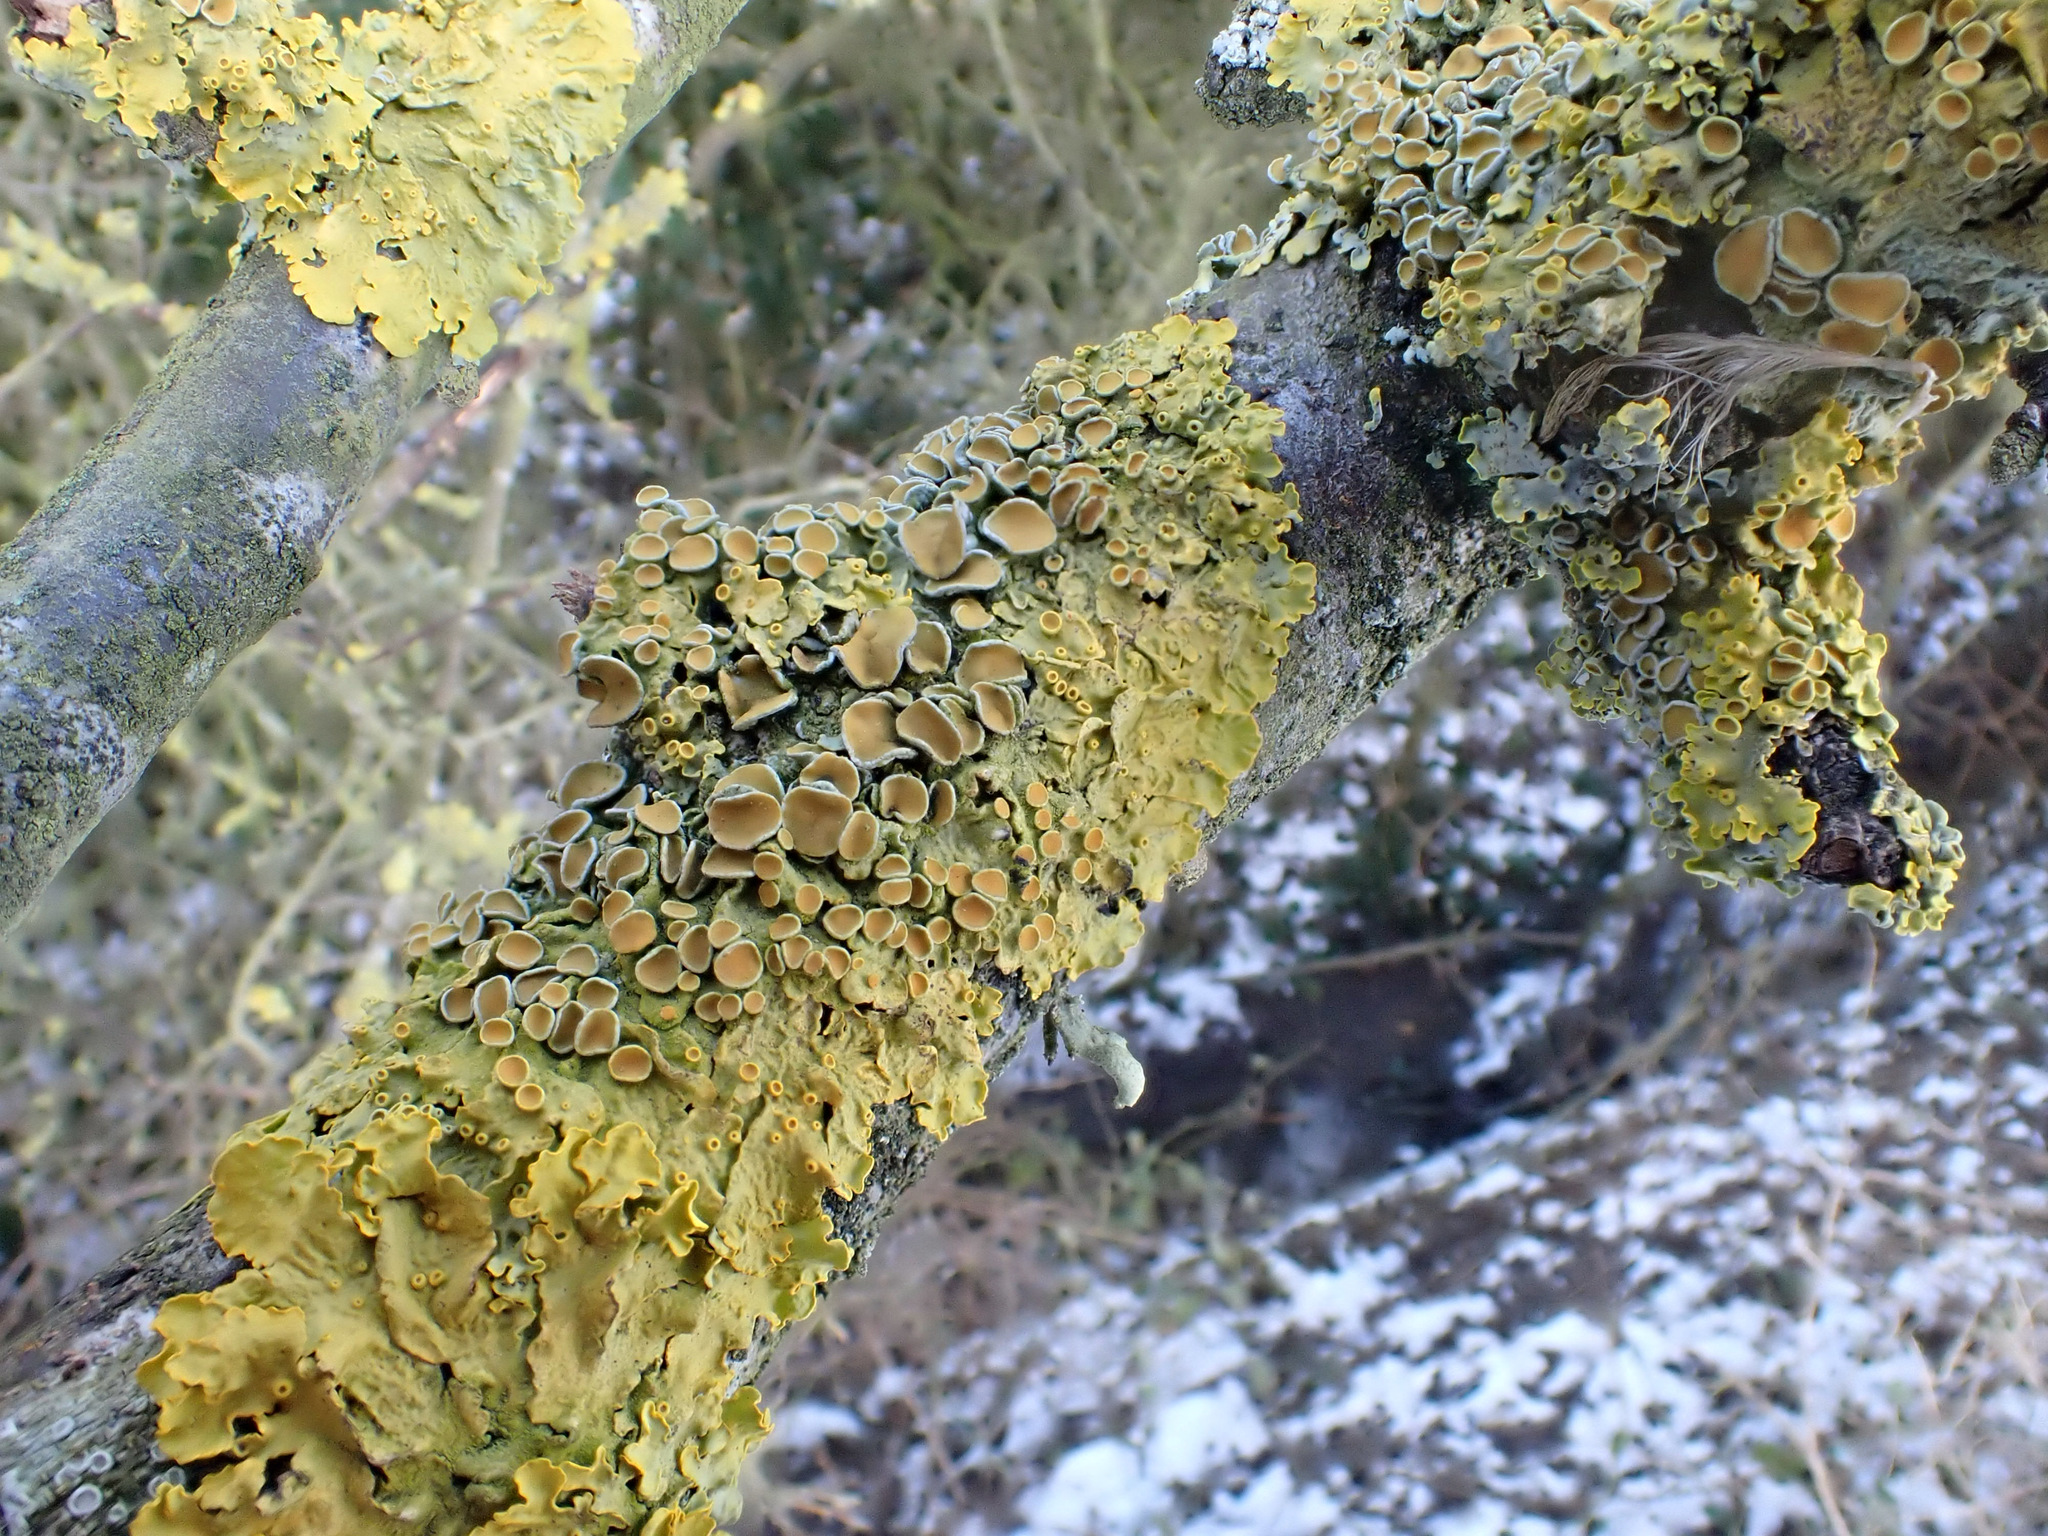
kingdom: Fungi
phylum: Ascomycota
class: Lecanoromycetes
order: Teloschistales
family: Teloschistaceae
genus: Xanthoria
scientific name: Xanthoria parietina
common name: Common orange lichen
